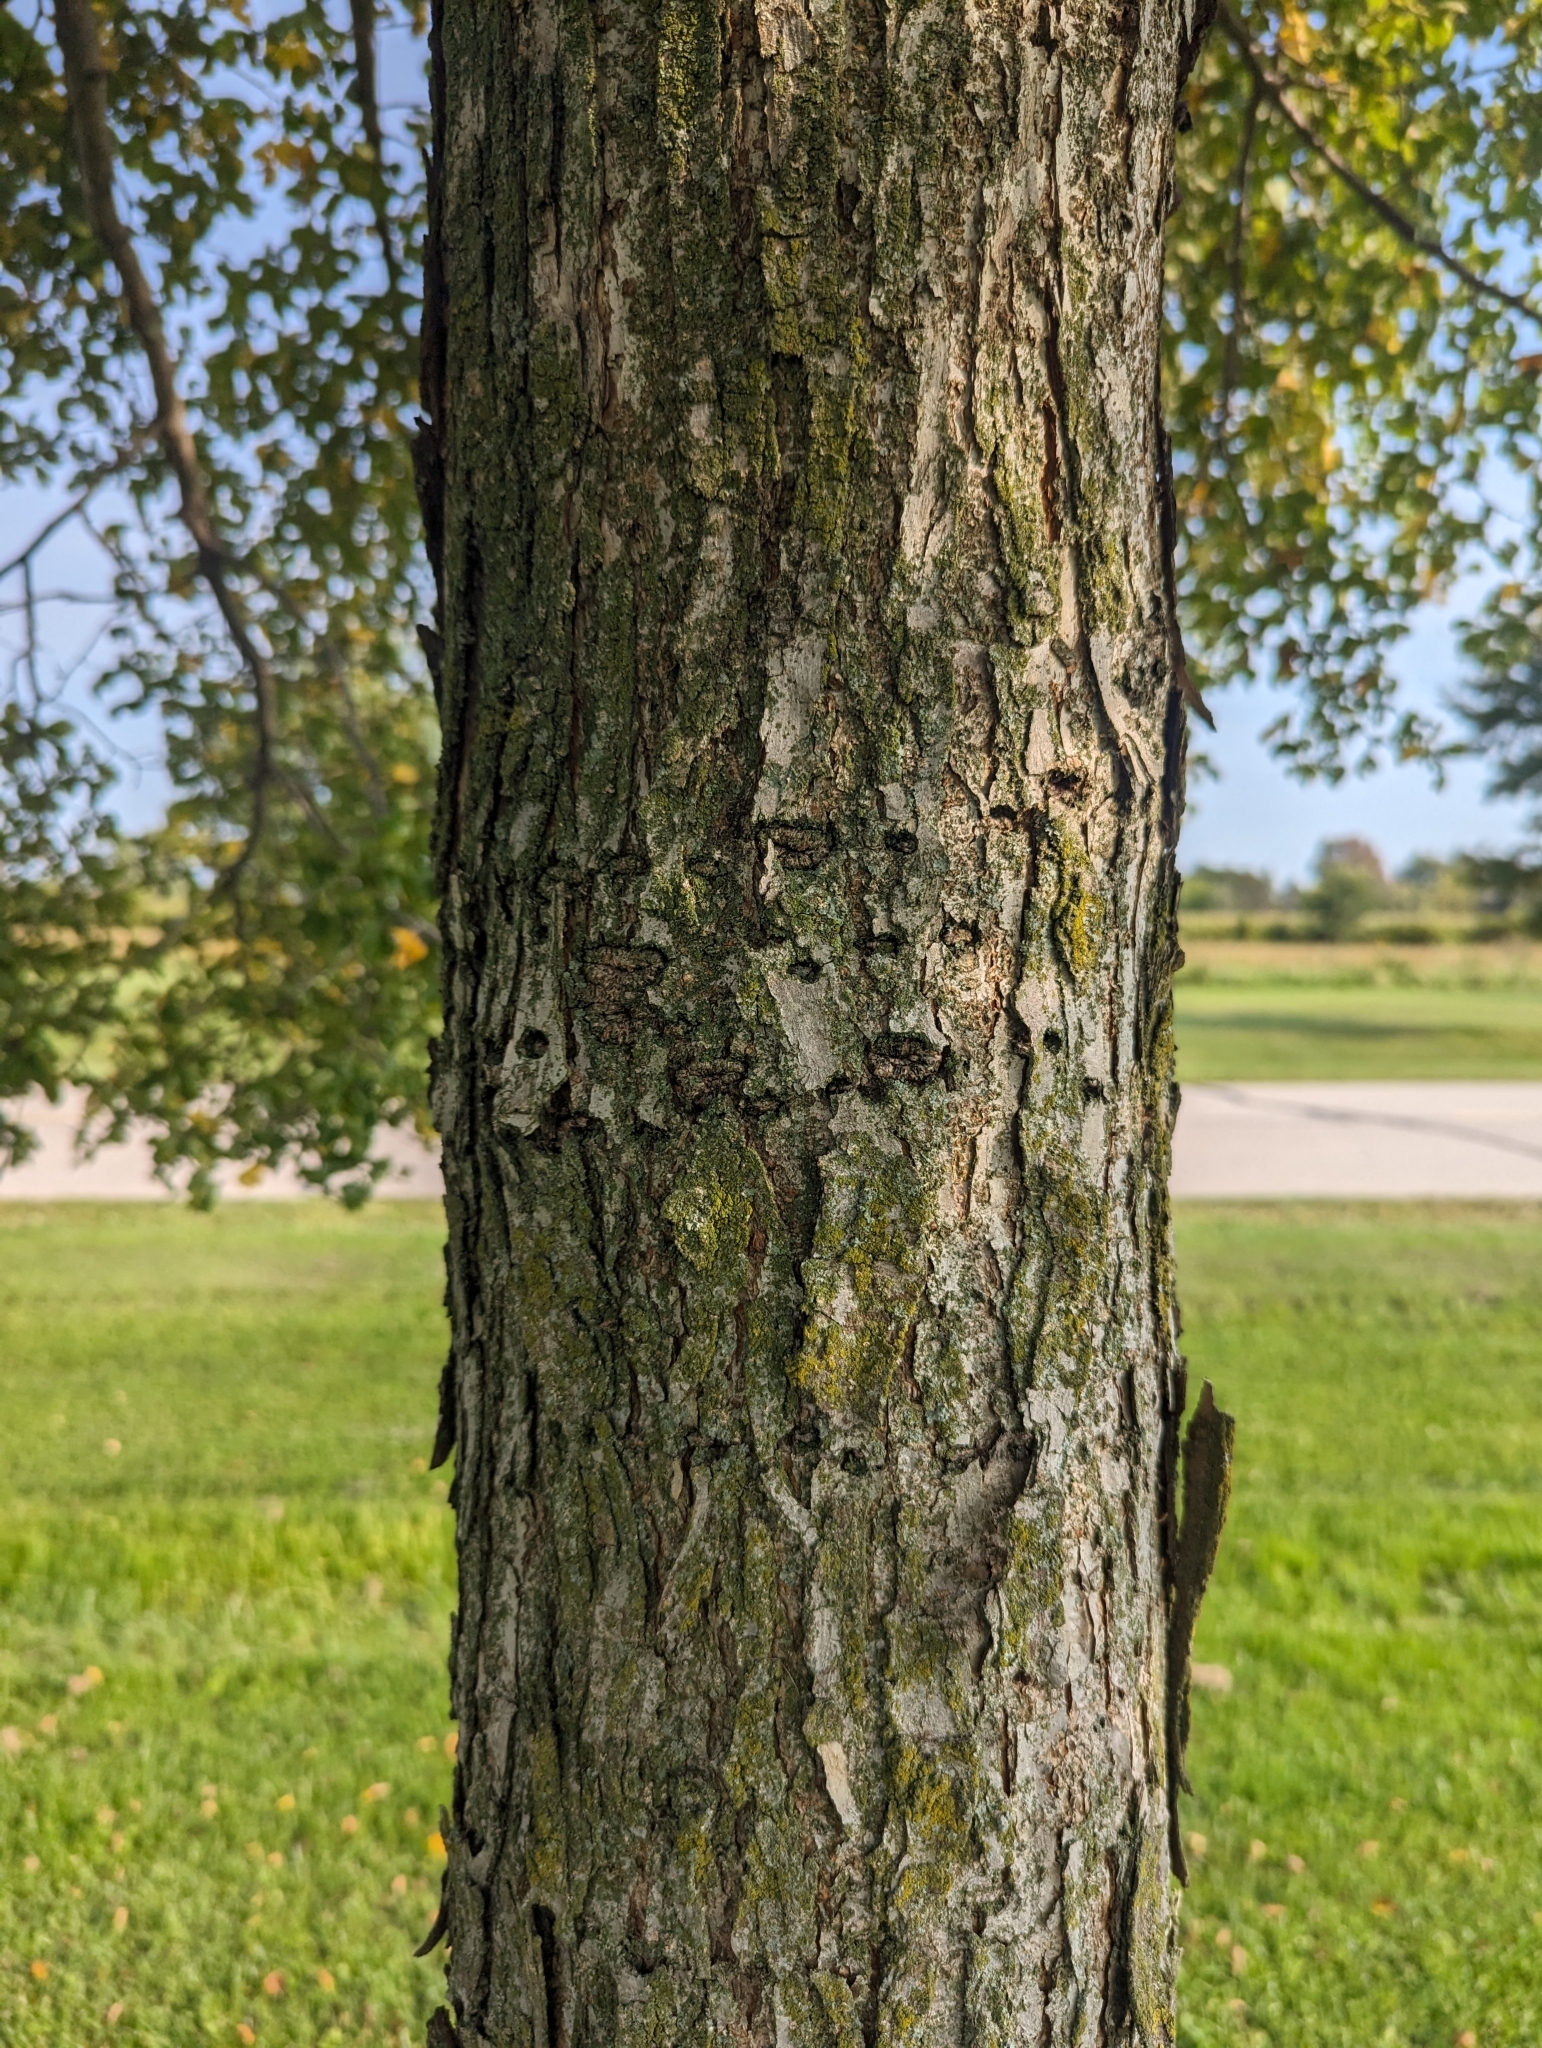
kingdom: Animalia
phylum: Chordata
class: Aves
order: Piciformes
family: Picidae
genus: Sphyrapicus
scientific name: Sphyrapicus varius
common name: Yellow-bellied sapsucker
